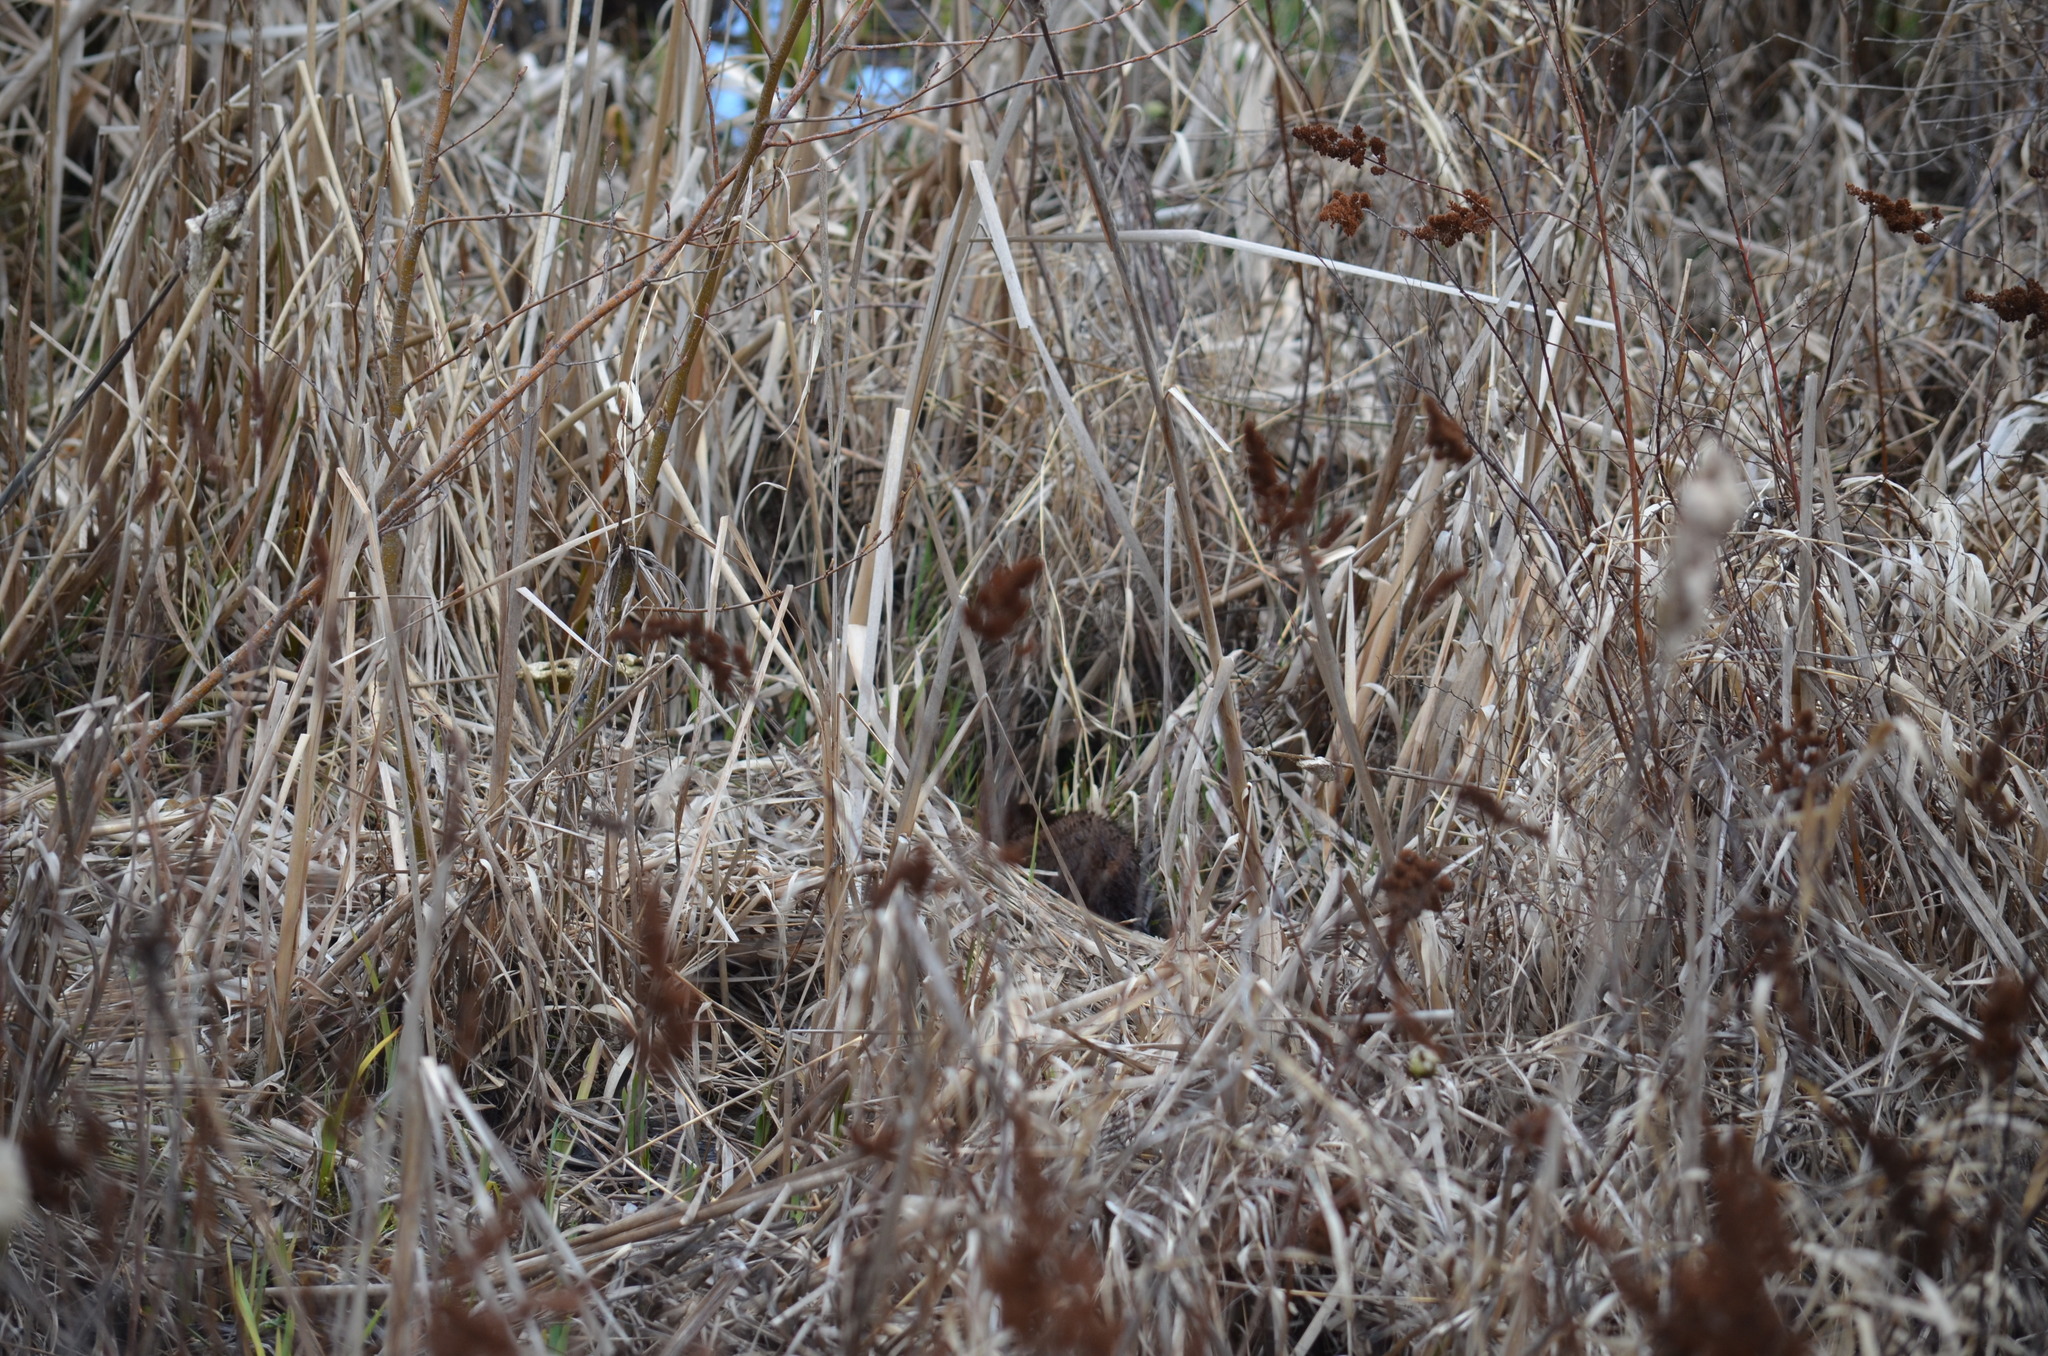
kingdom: Animalia
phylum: Chordata
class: Mammalia
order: Carnivora
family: Mustelidae
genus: Mustela
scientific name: Mustela
